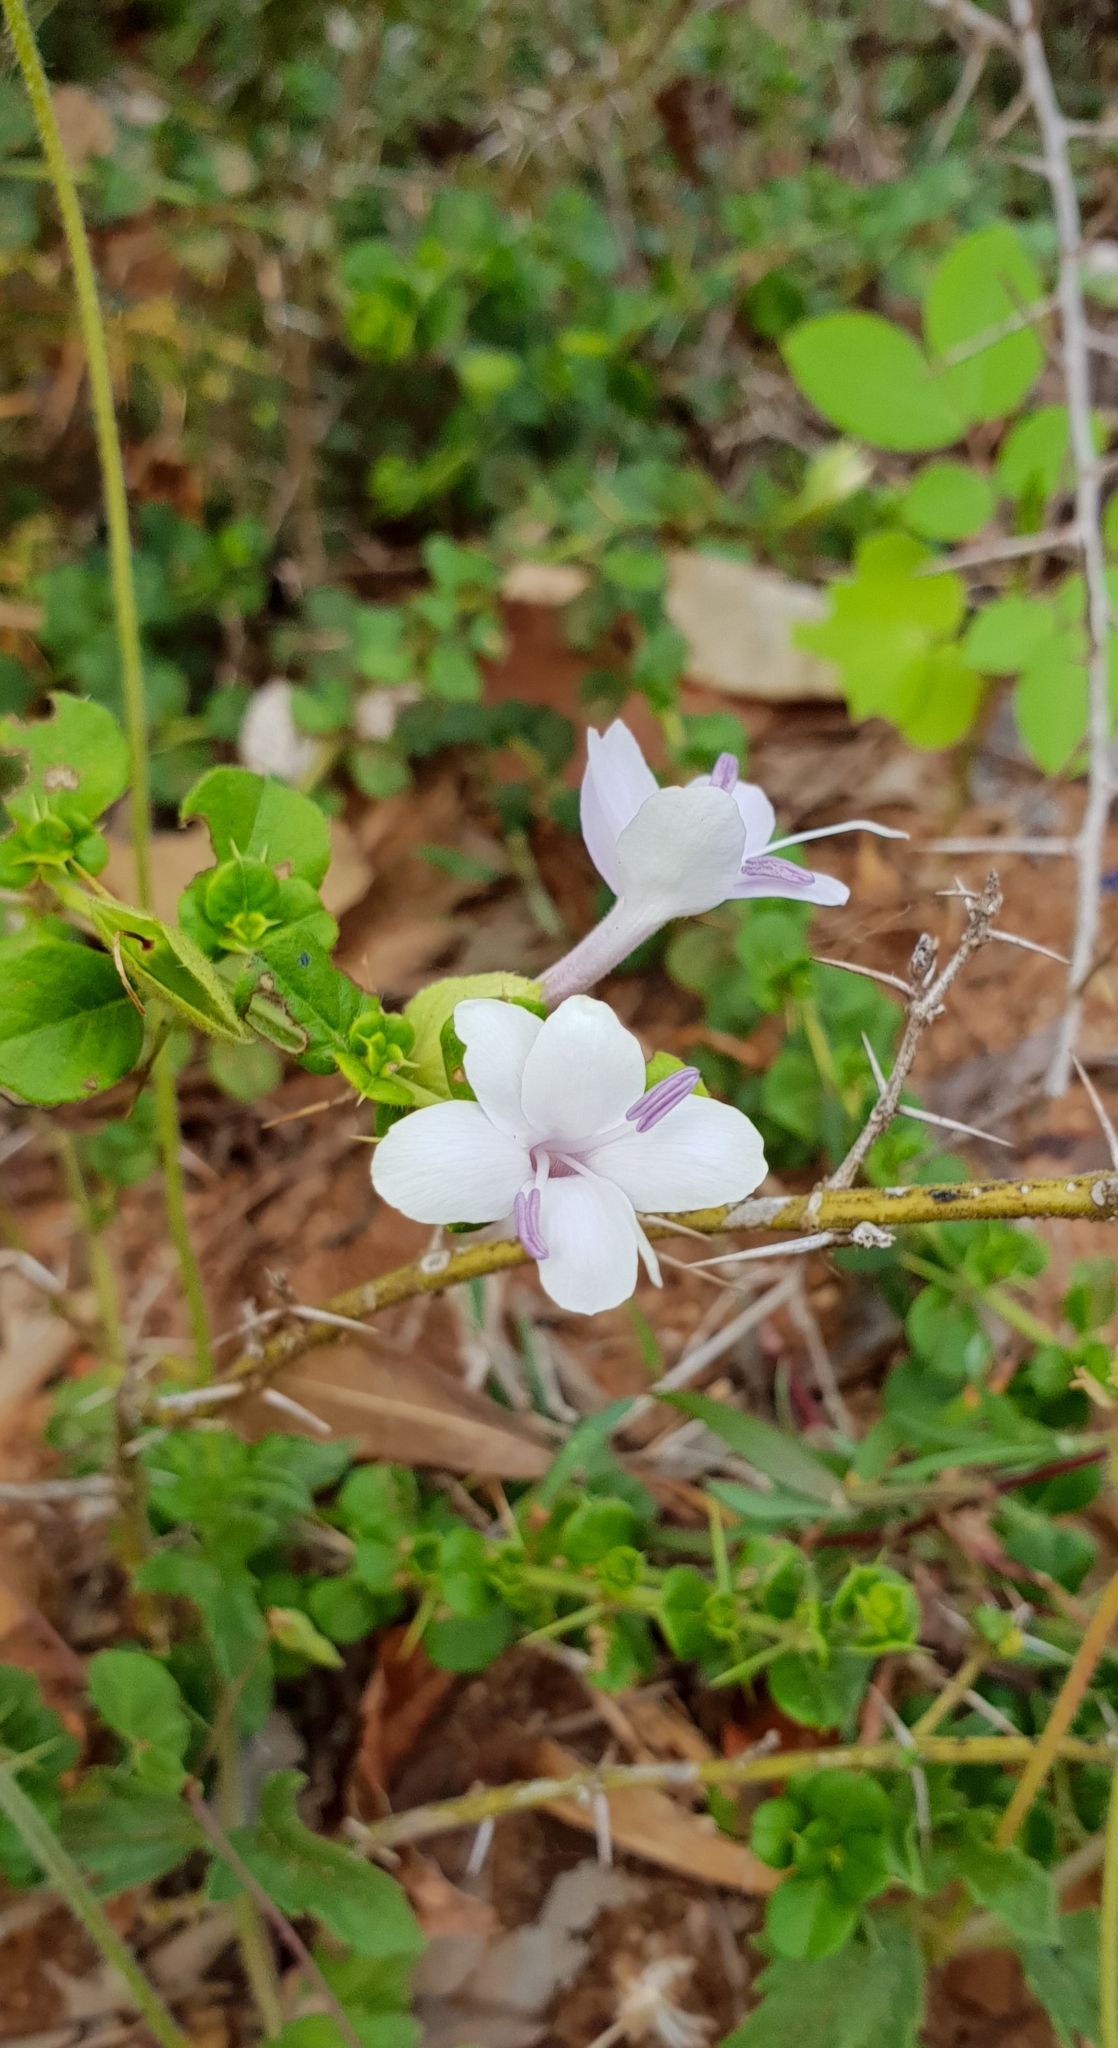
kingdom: Plantae
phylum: Tracheophyta
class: Magnoliopsida
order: Lamiales
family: Acanthaceae
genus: Barleria
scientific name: Barleria buxifolia
